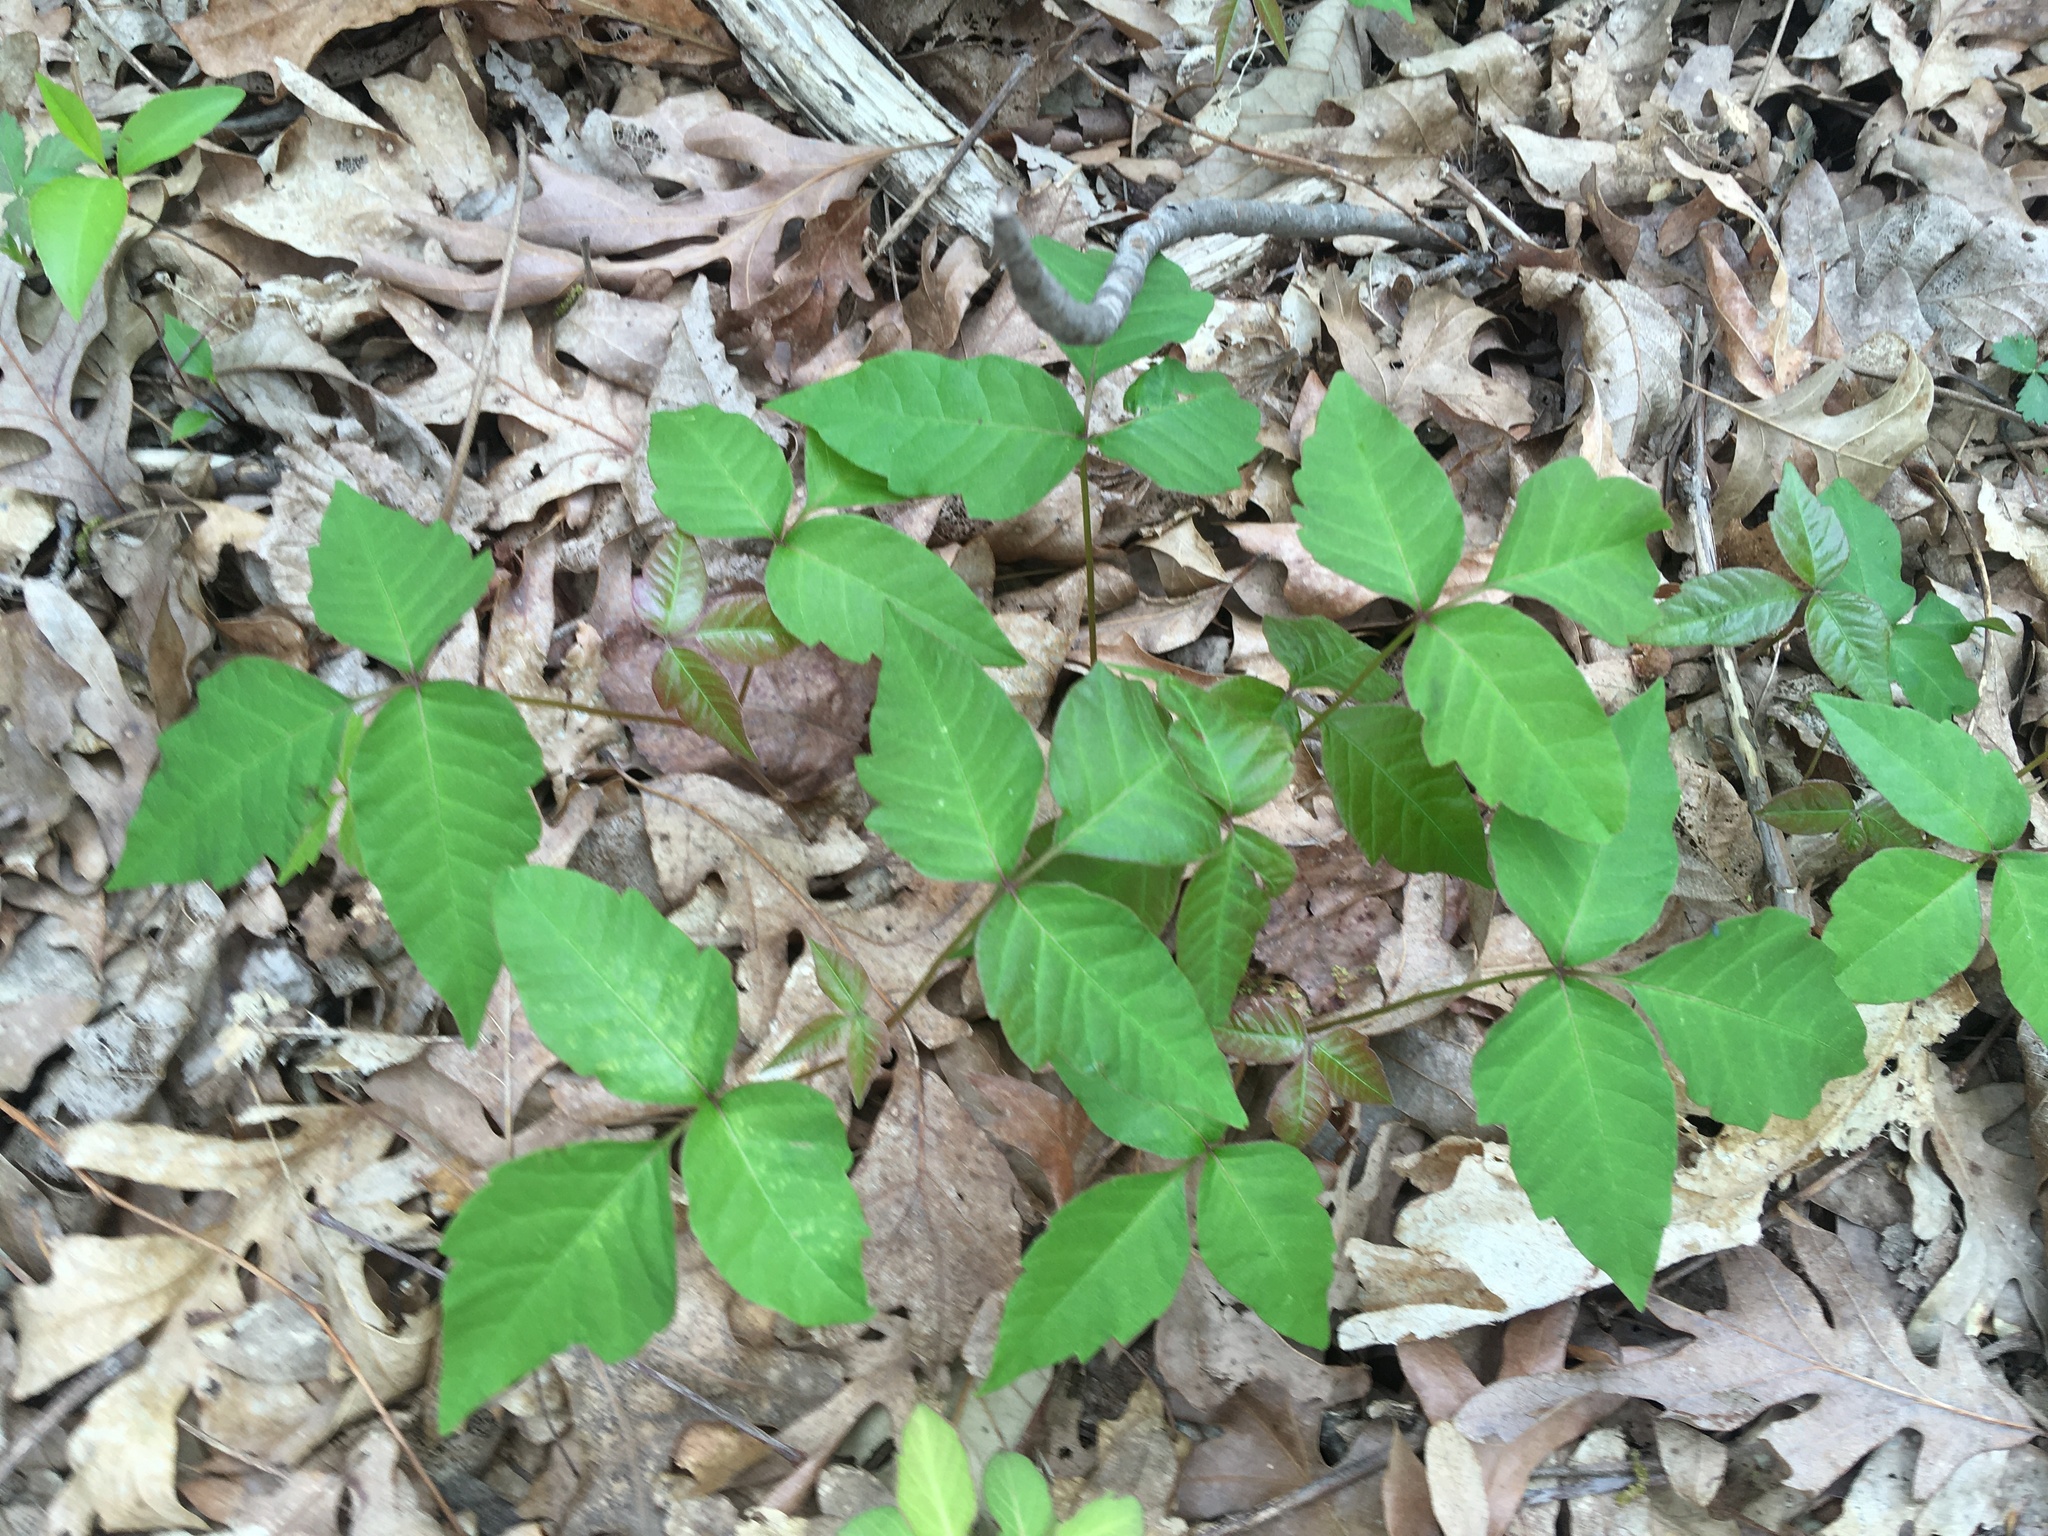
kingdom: Plantae
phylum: Tracheophyta
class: Magnoliopsida
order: Sapindales
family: Anacardiaceae
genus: Toxicodendron
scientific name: Toxicodendron radicans
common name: Poison ivy
